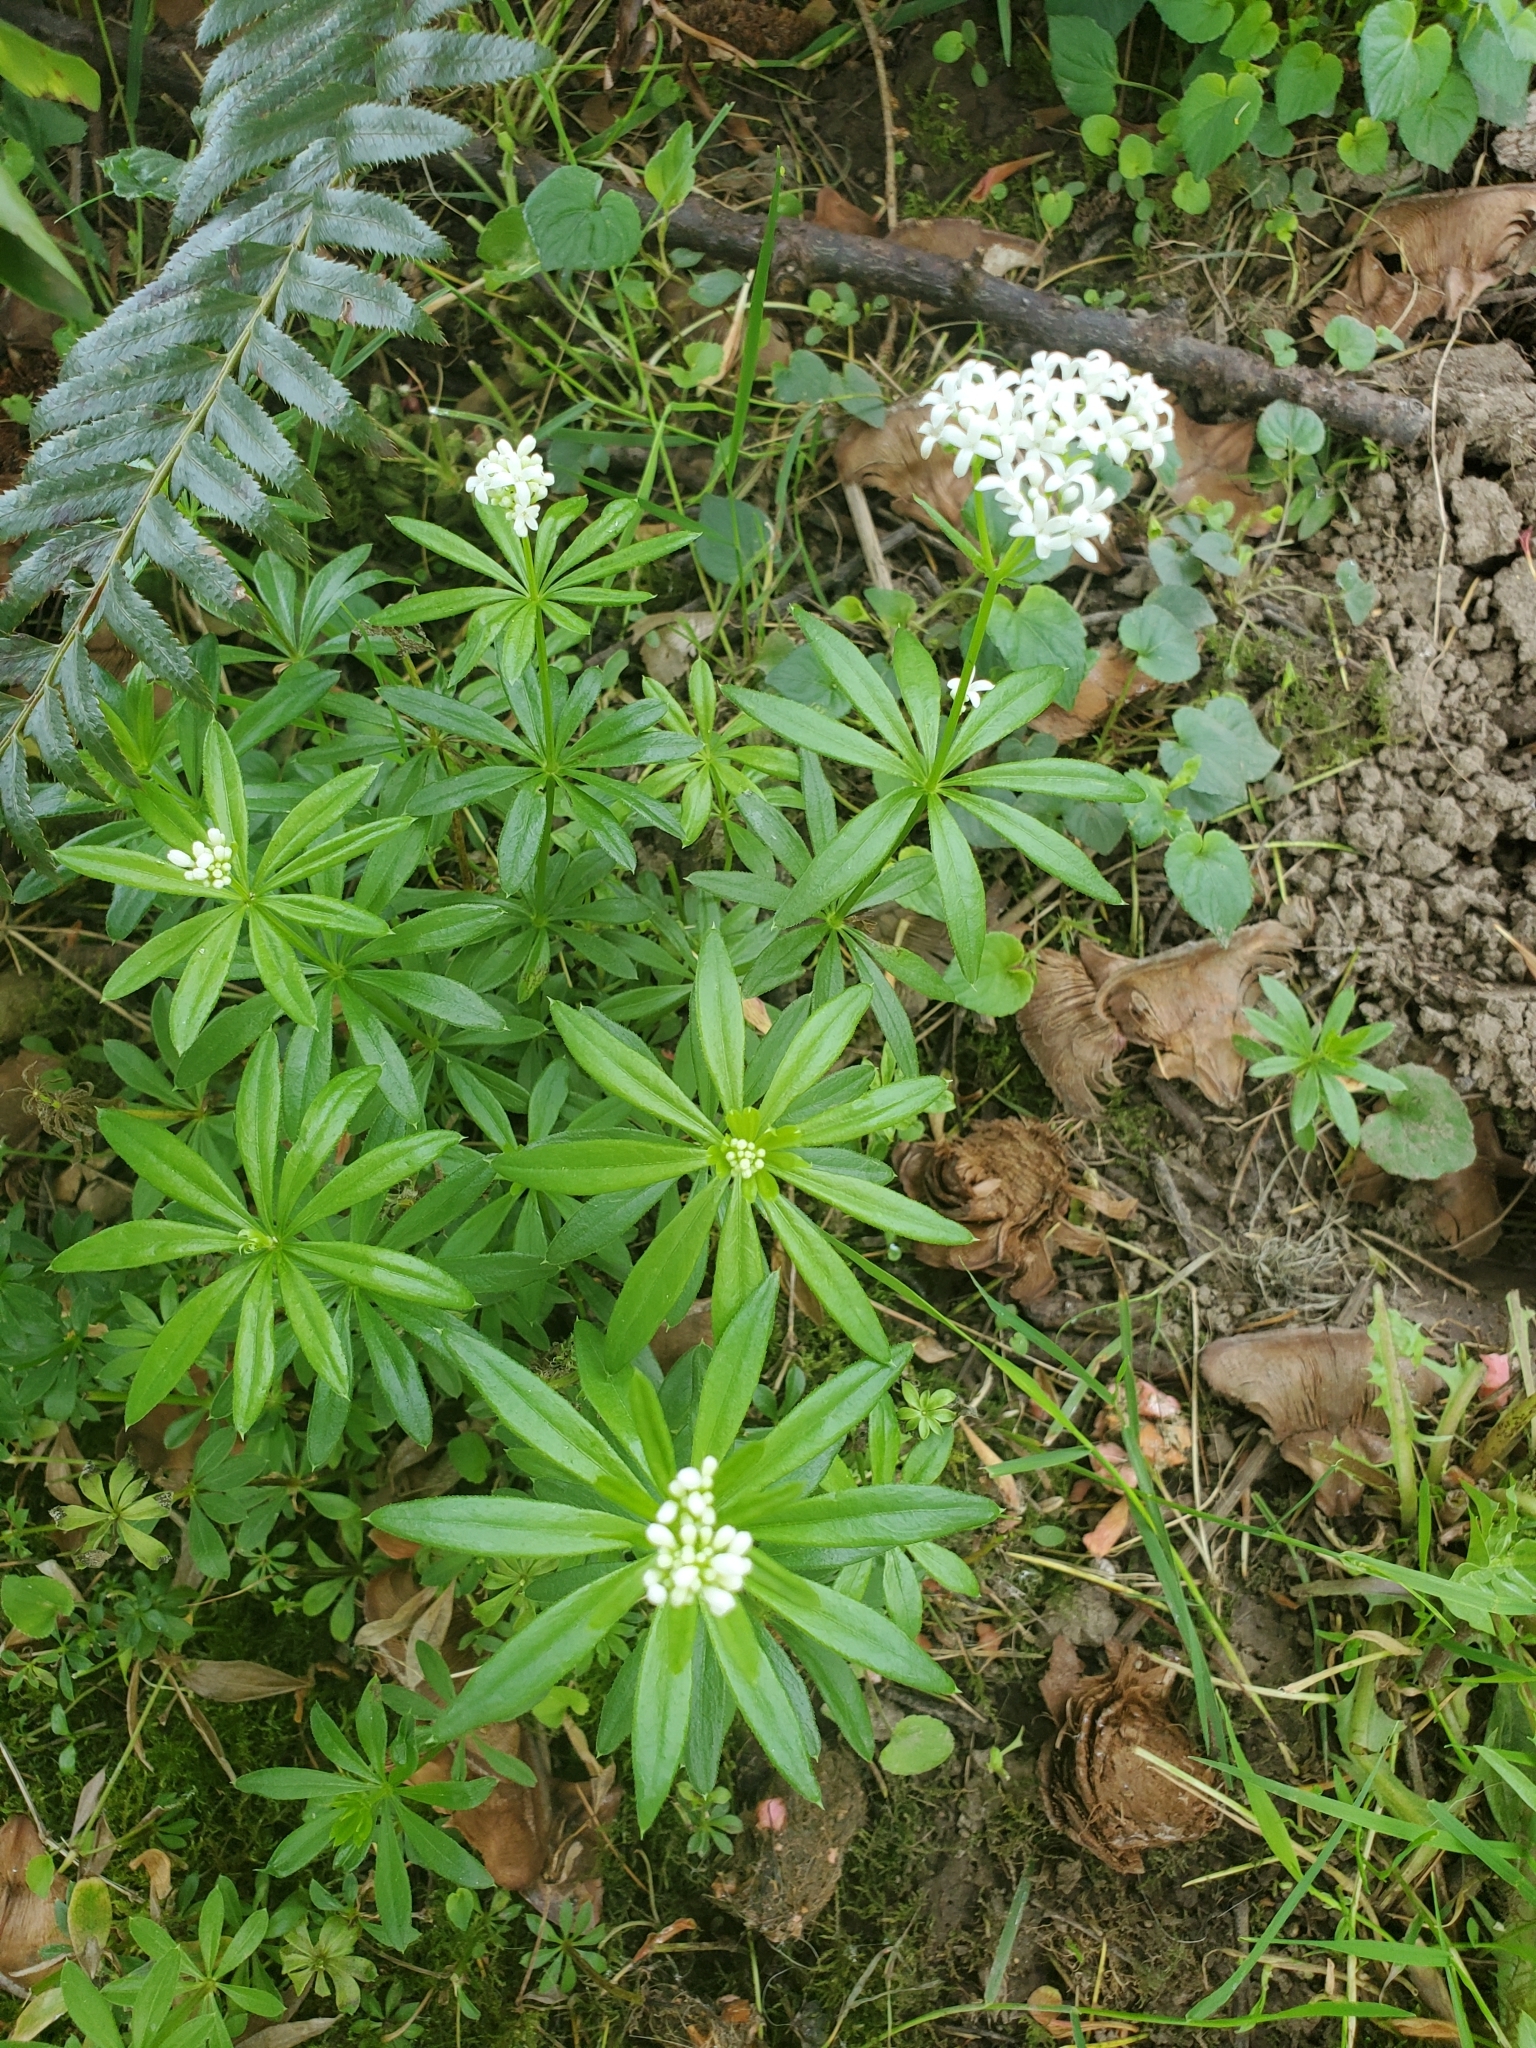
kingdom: Plantae
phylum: Tracheophyta
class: Magnoliopsida
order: Gentianales
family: Rubiaceae
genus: Galium
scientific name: Galium odoratum
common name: Sweet woodruff
